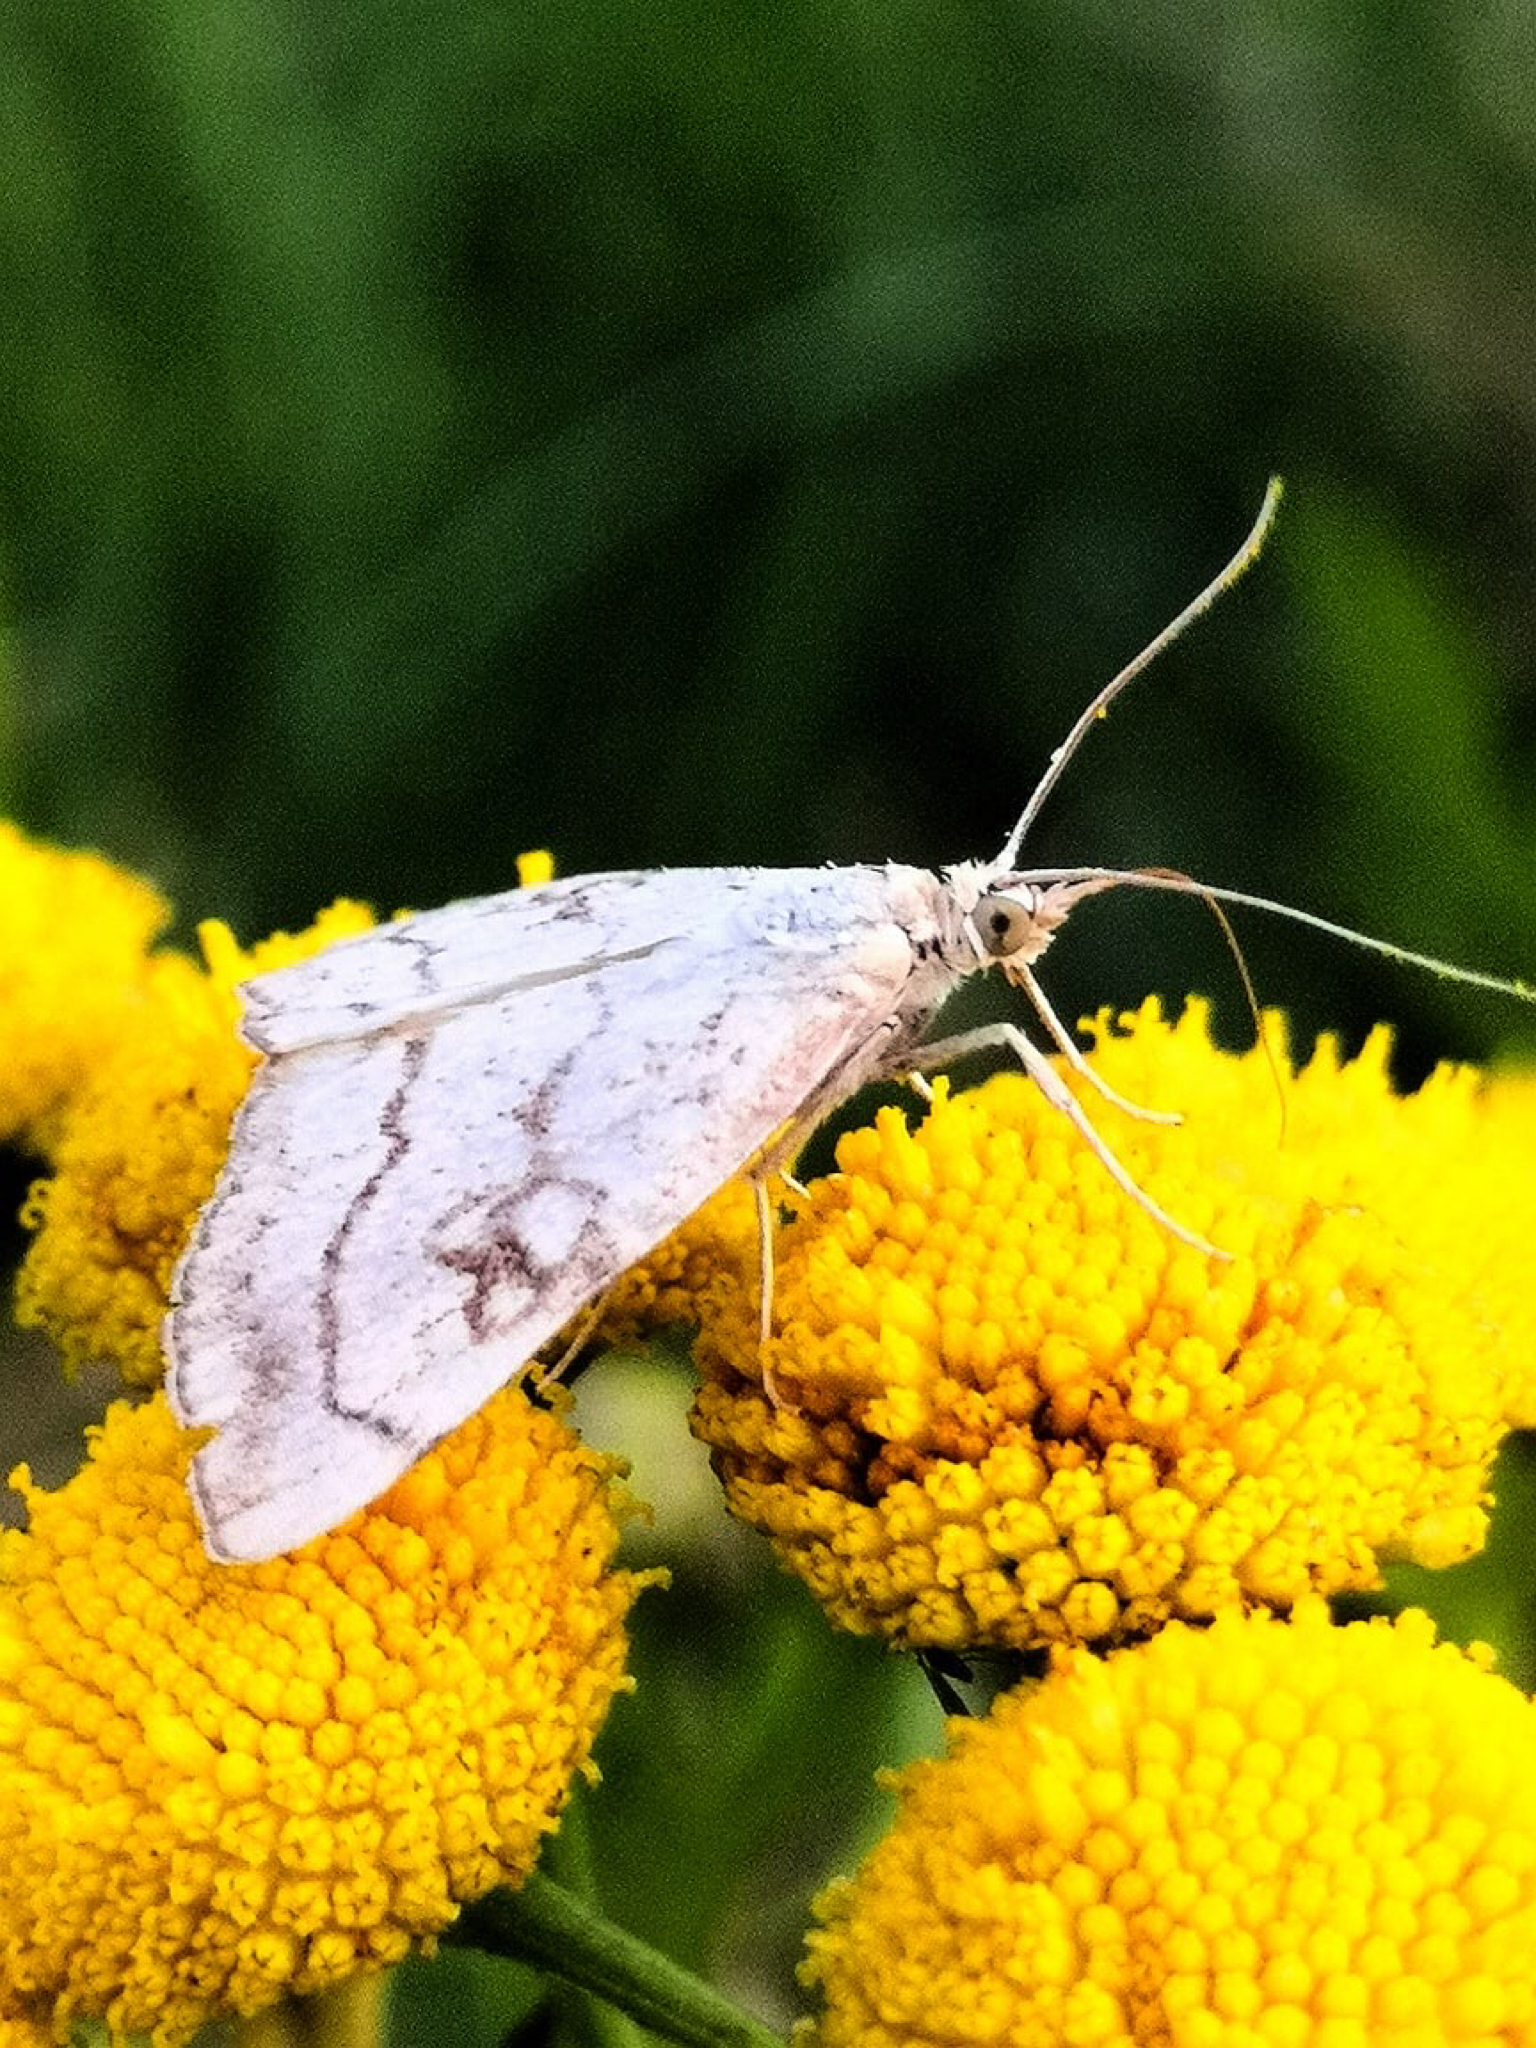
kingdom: Animalia
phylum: Arthropoda
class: Insecta
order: Lepidoptera
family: Crambidae
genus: Evergestis
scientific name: Evergestis pallidata
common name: Chequered pearl
